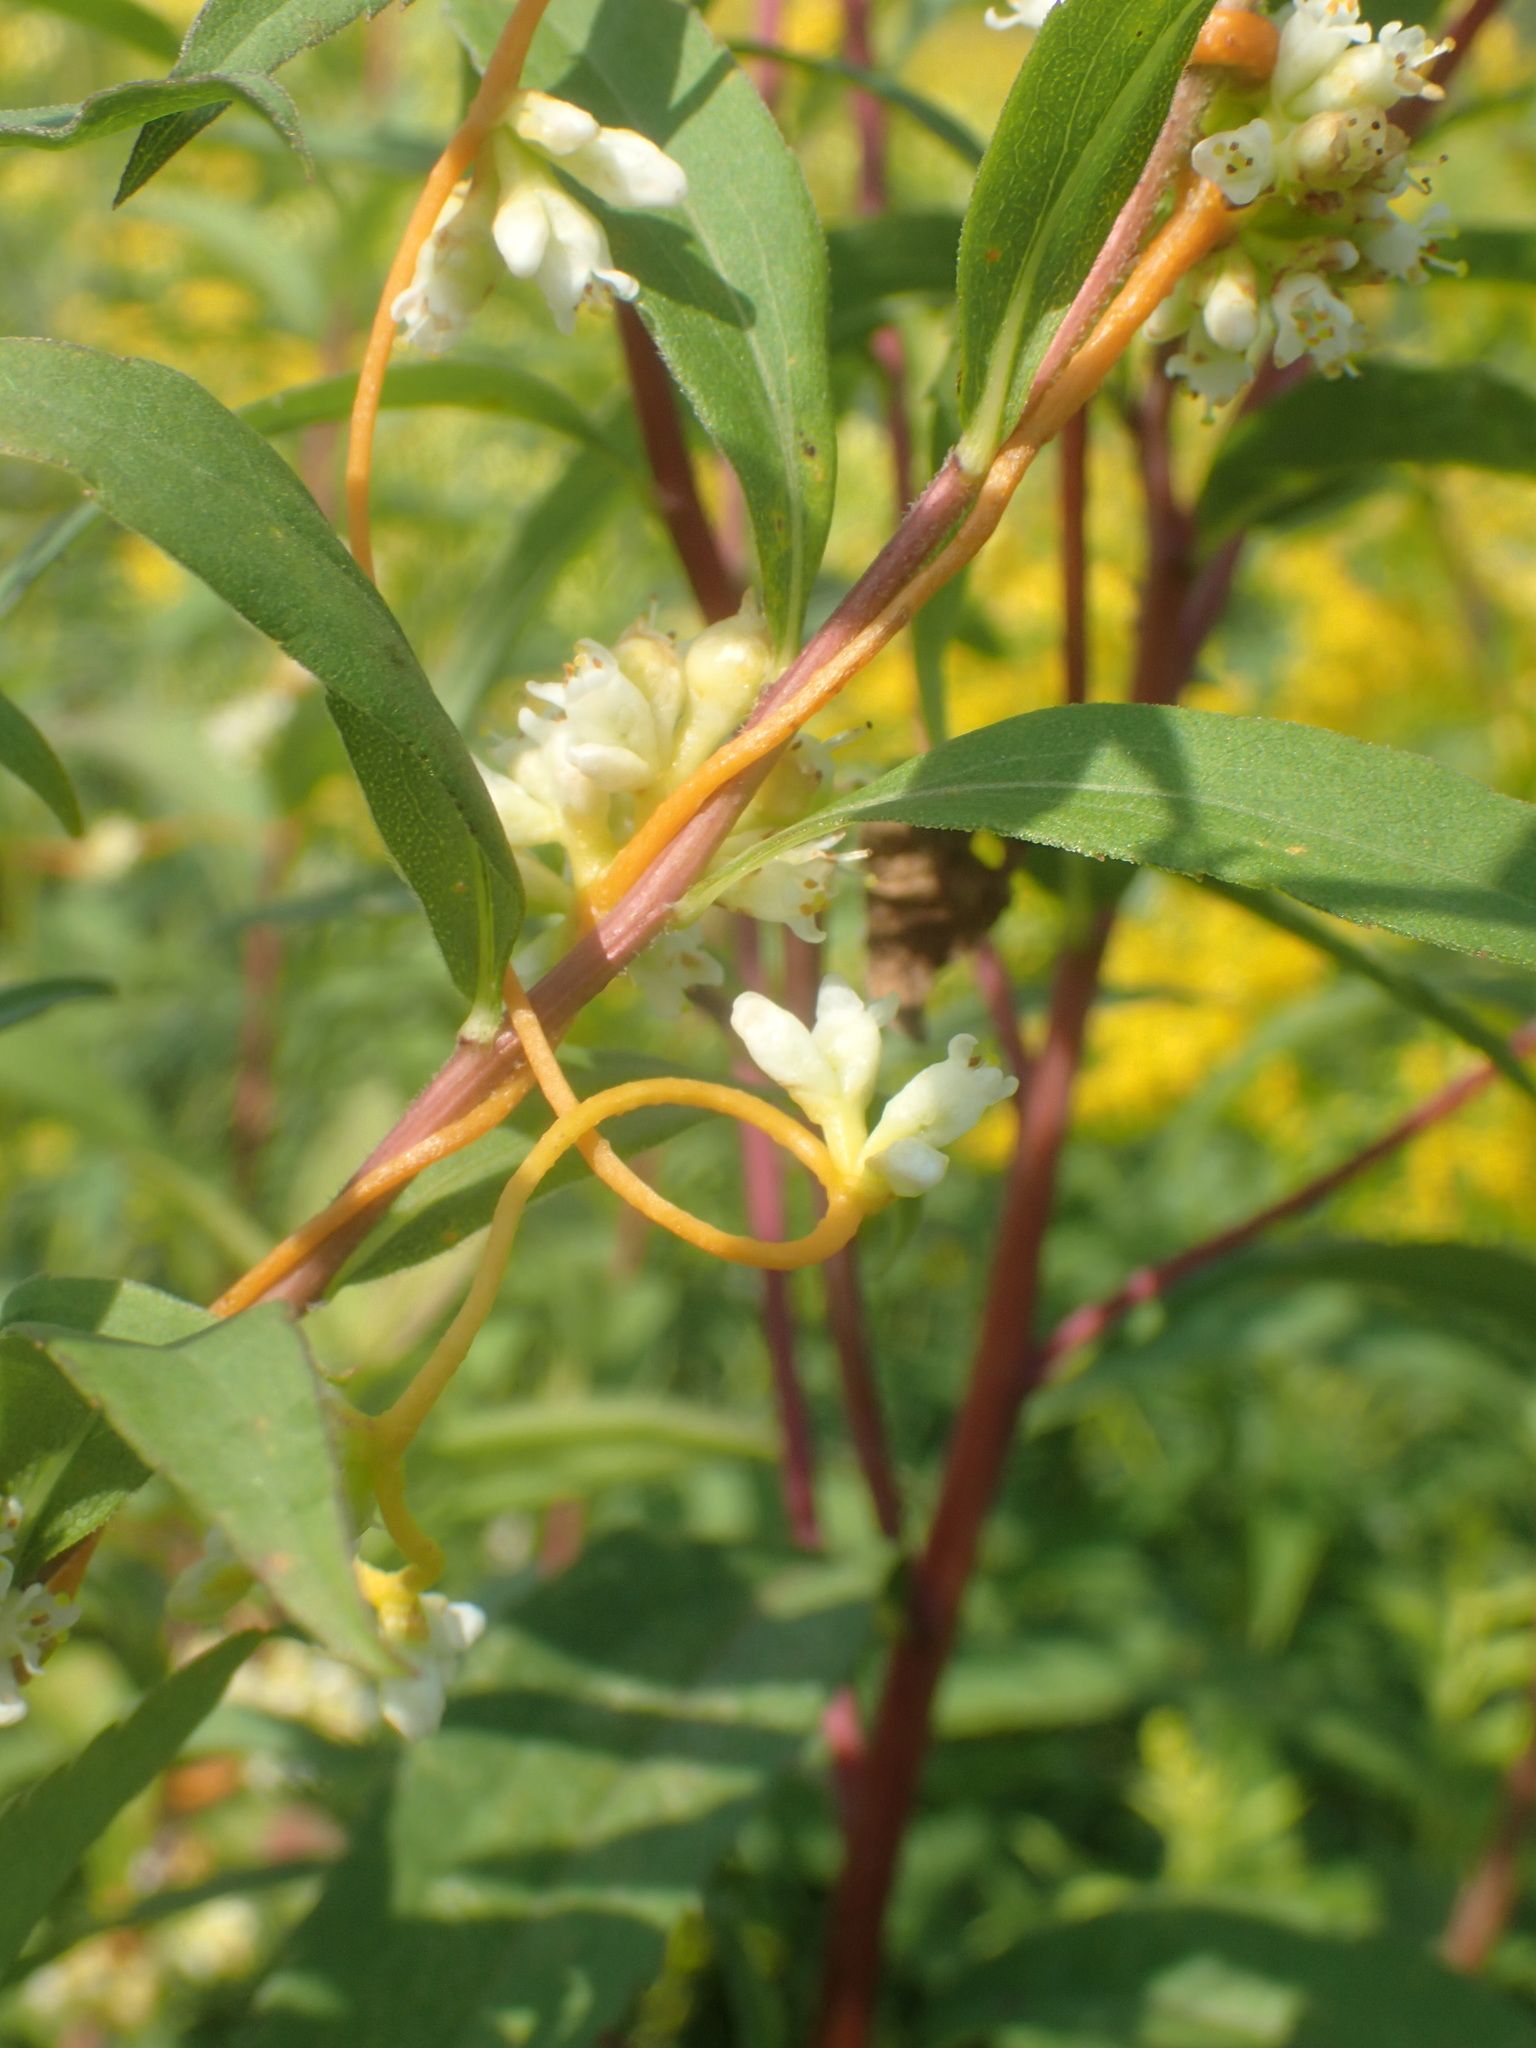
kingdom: Plantae
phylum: Tracheophyta
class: Magnoliopsida
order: Solanales
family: Convolvulaceae
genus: Cuscuta
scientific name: Cuscuta cephalanthi
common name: Button dodder
